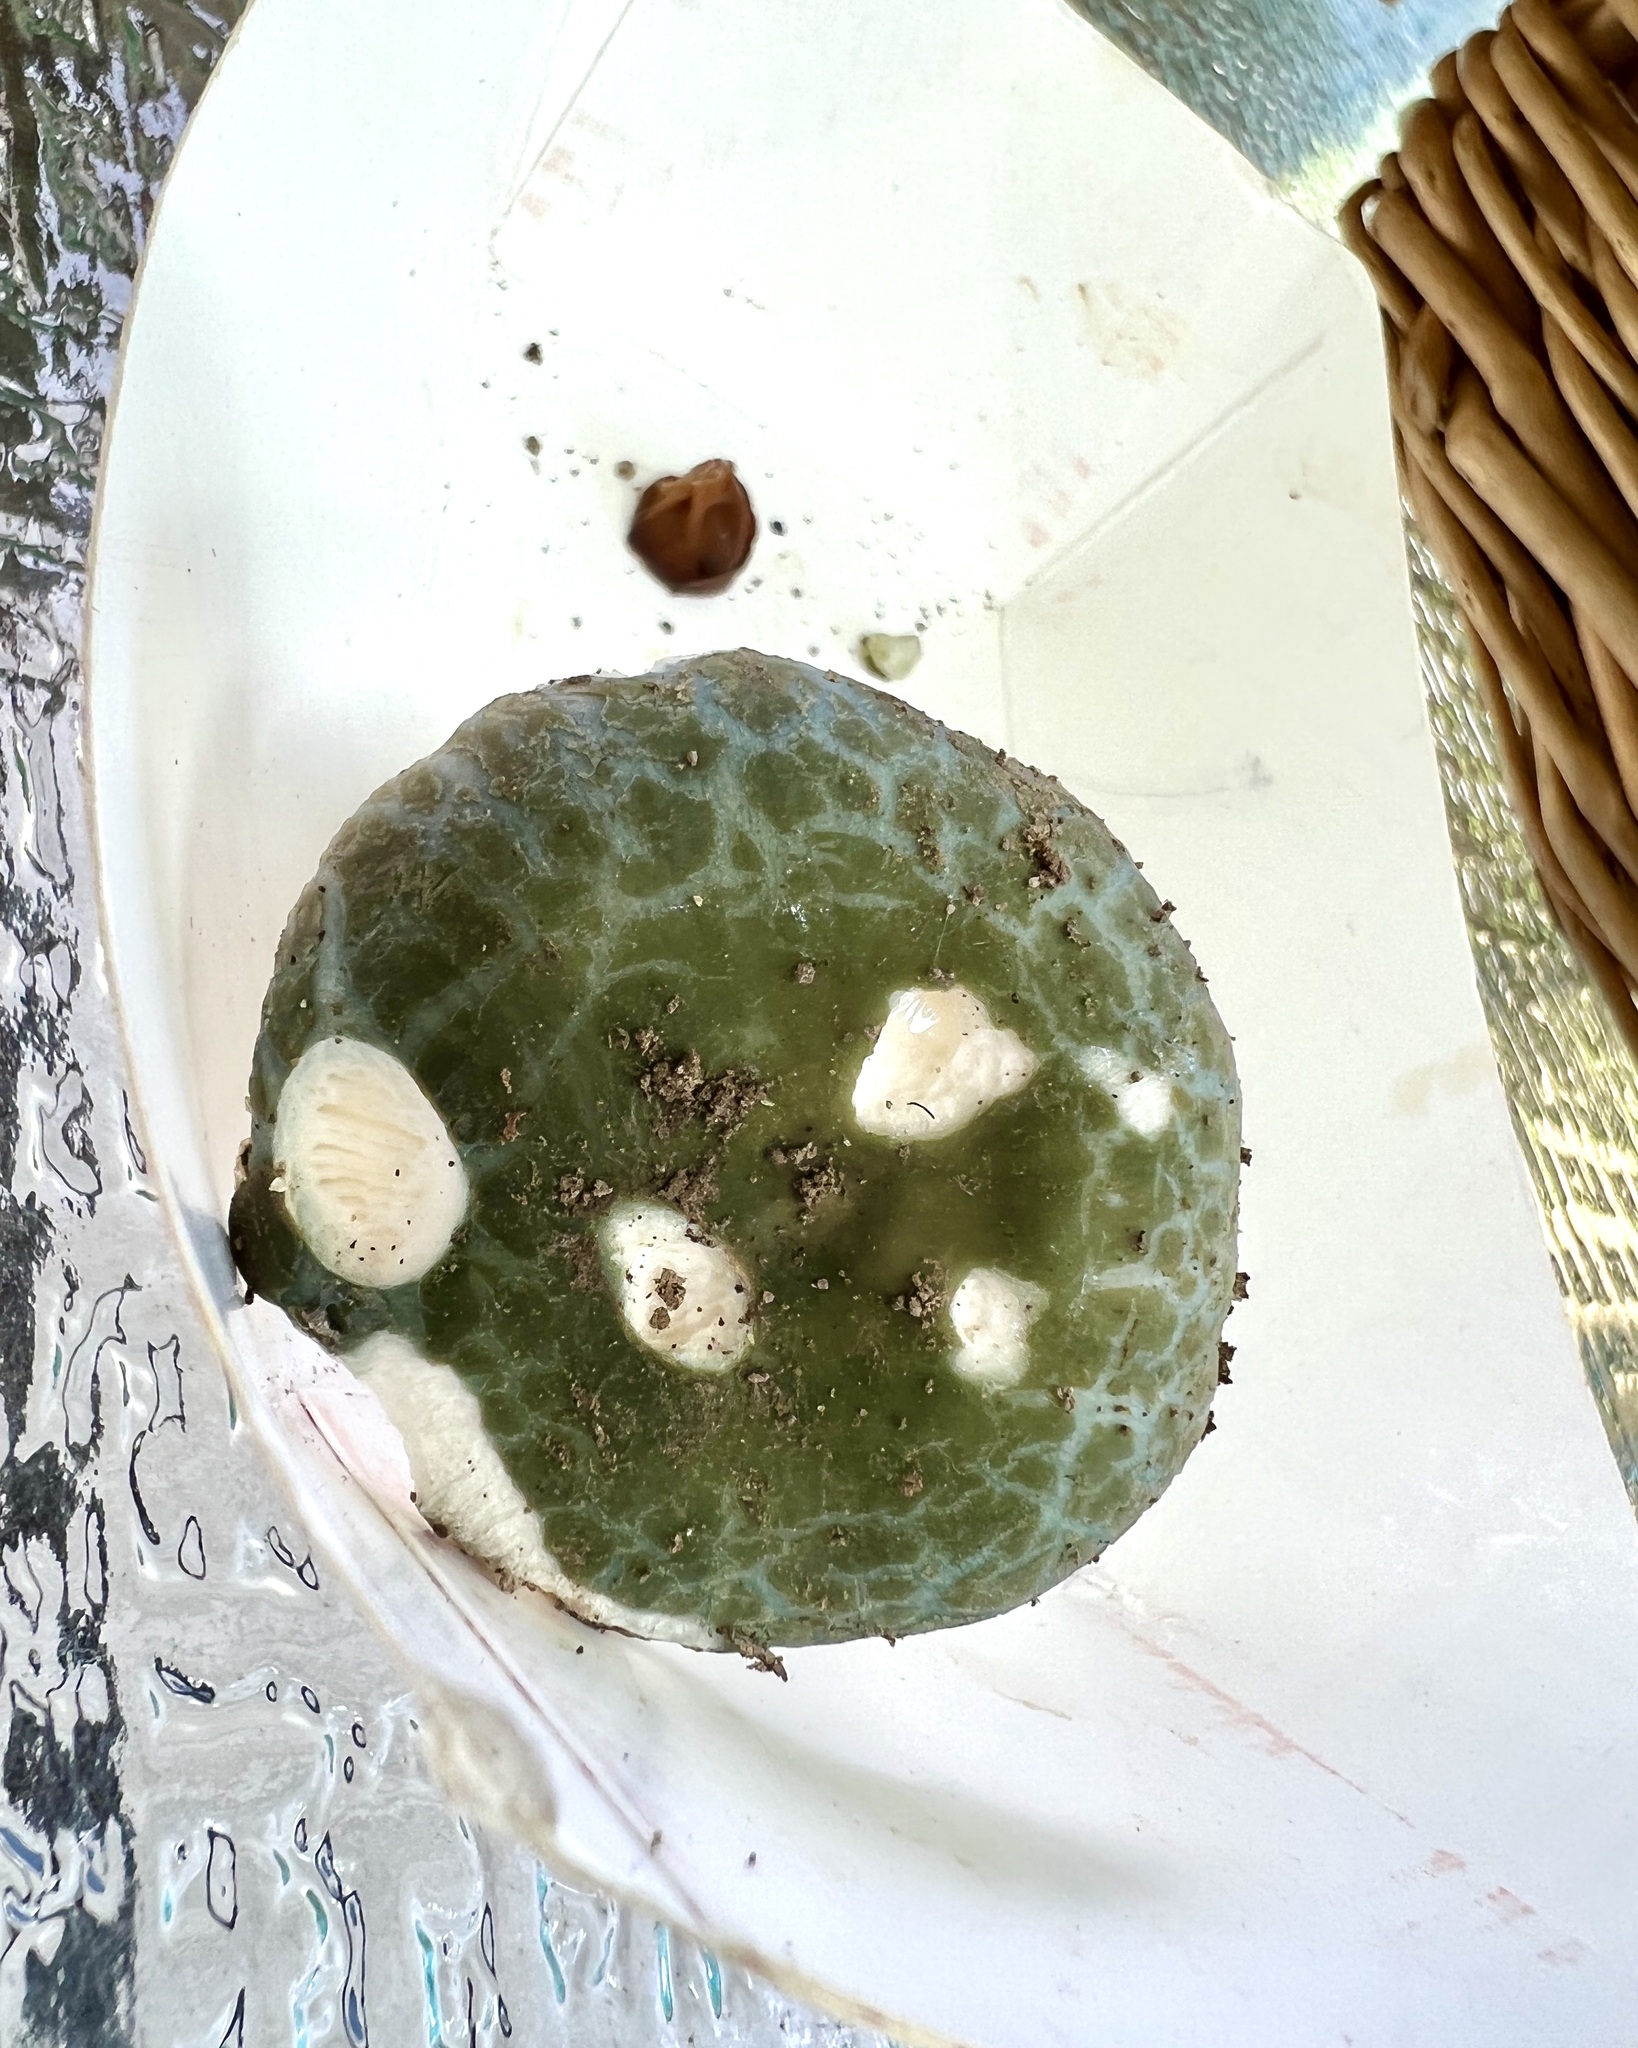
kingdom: Fungi
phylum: Basidiomycota
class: Agaricomycetes
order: Russulales
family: Russulaceae
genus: Russula
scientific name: Russula parvovirescens
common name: Blue-green cracking russula
